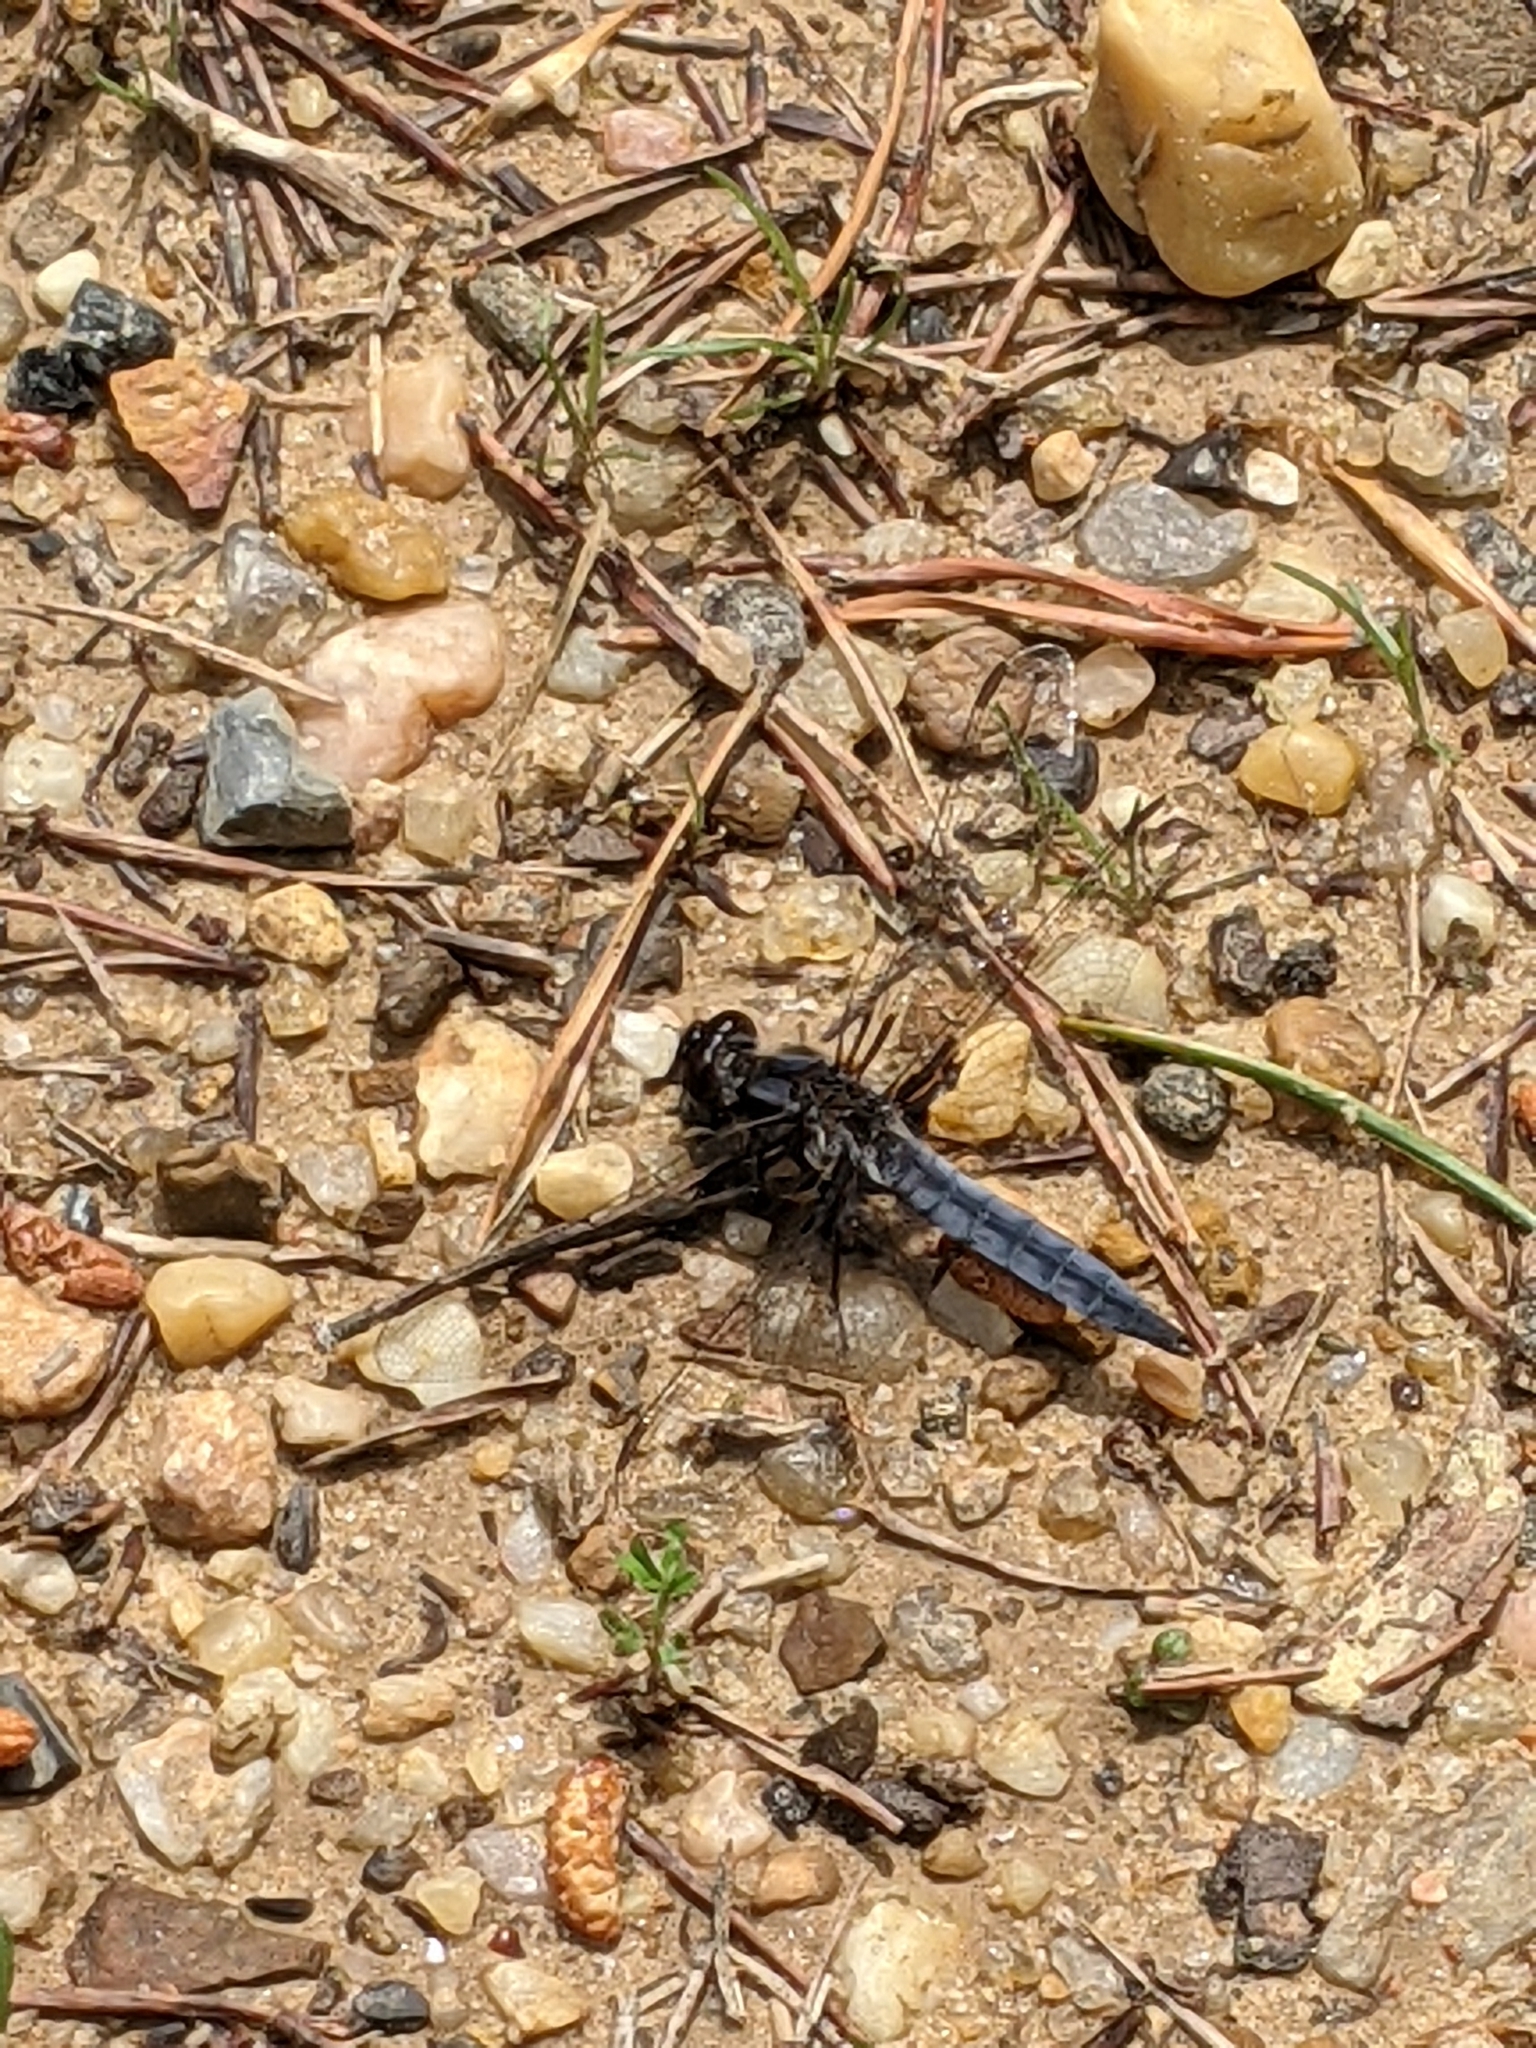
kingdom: Animalia
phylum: Arthropoda
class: Insecta
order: Odonata
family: Libellulidae
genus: Ladona
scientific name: Ladona deplanata
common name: Blue corporal
